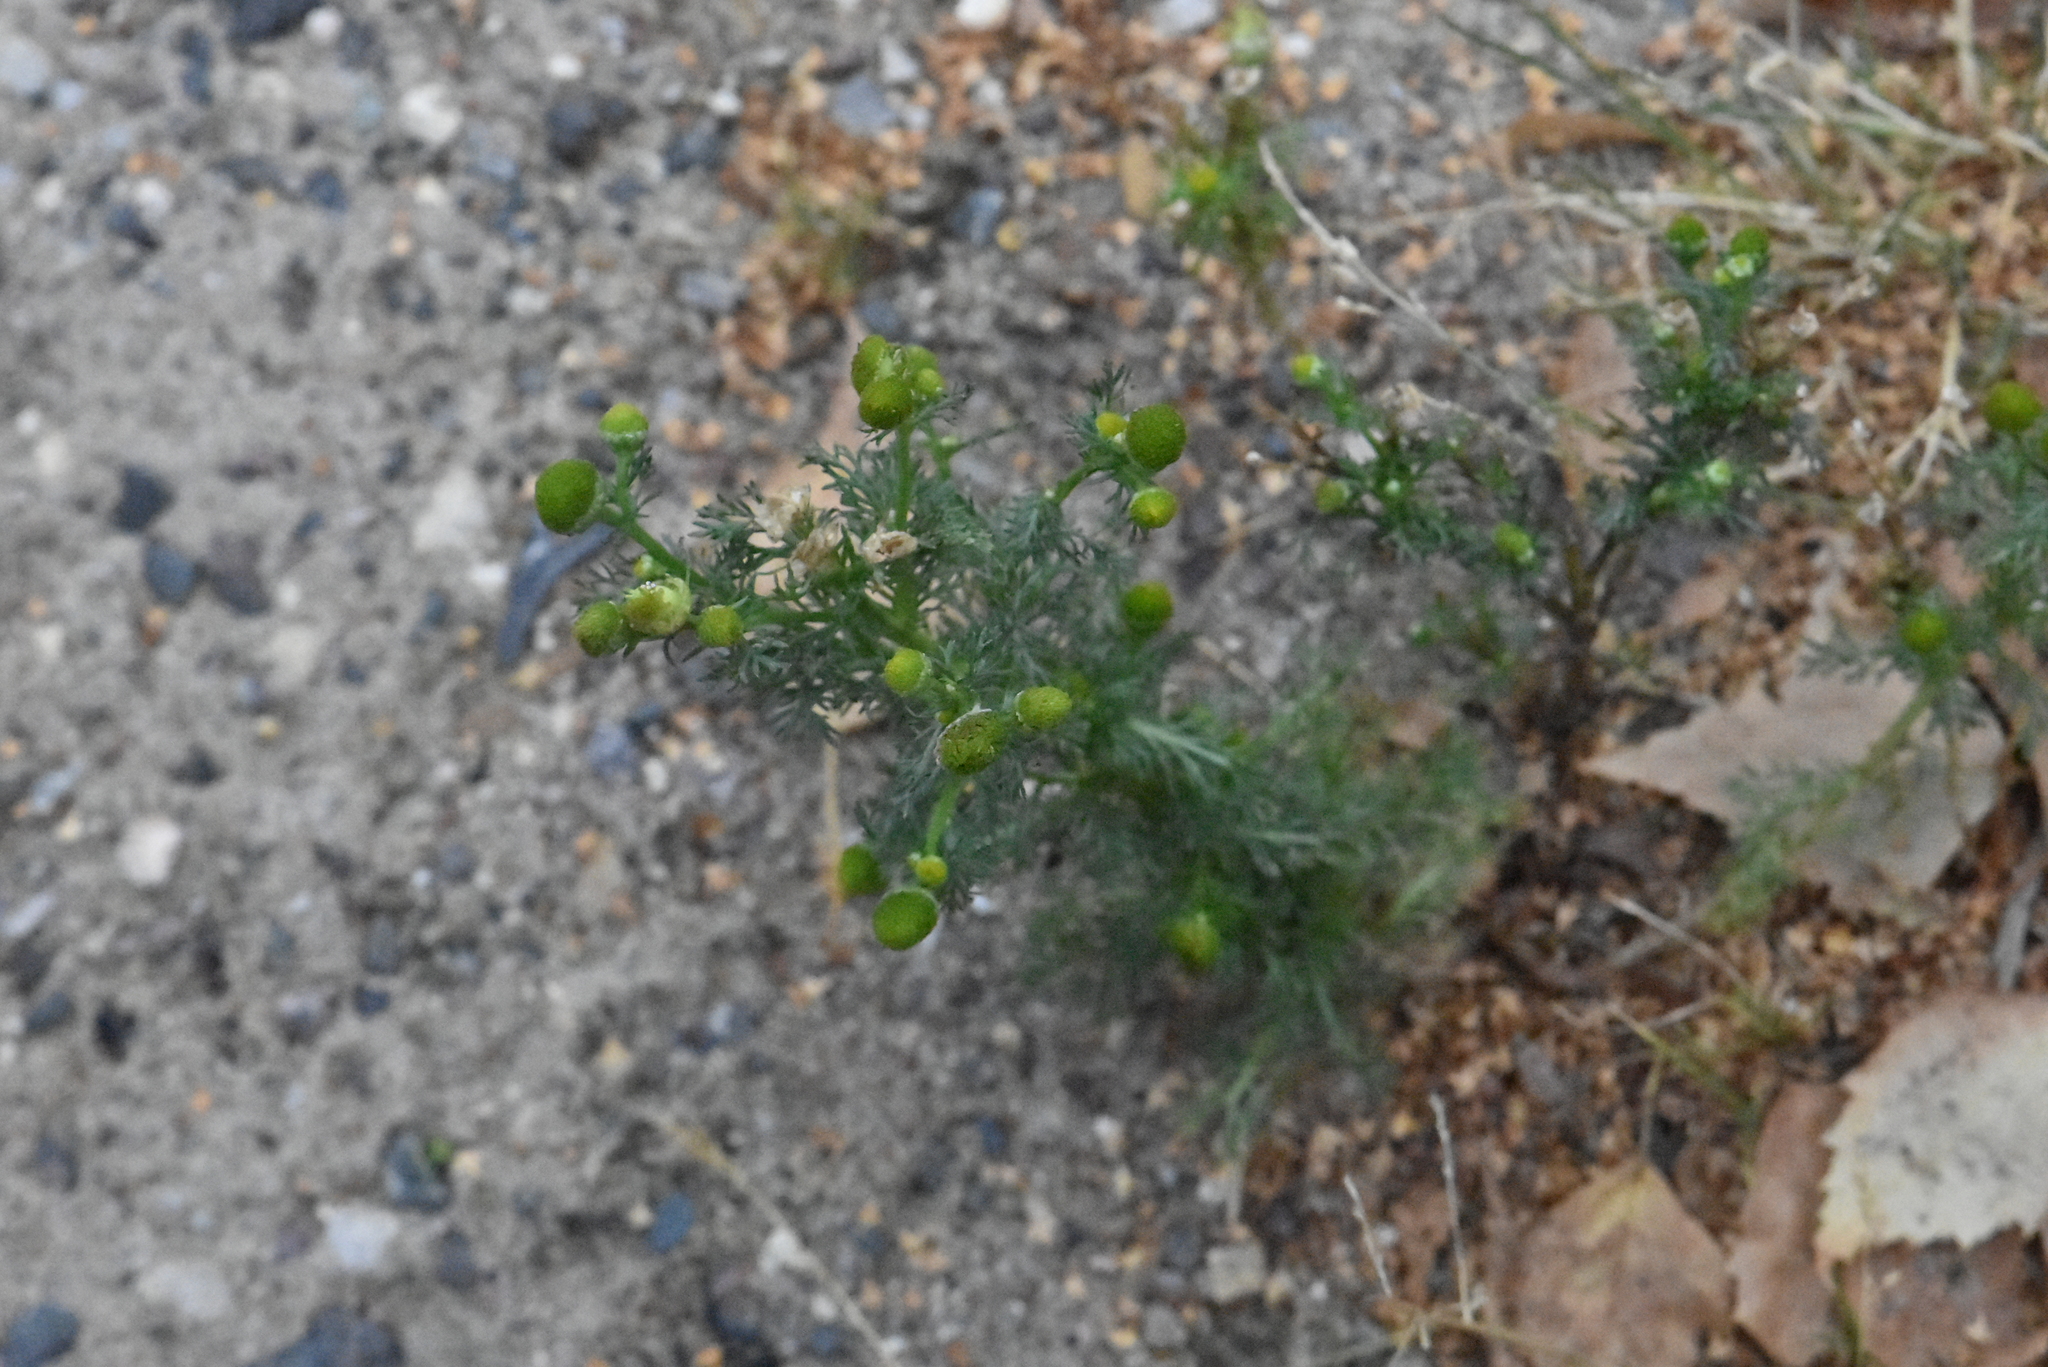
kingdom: Plantae
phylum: Tracheophyta
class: Magnoliopsida
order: Asterales
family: Asteraceae
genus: Matricaria
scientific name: Matricaria discoidea
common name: Disc mayweed
